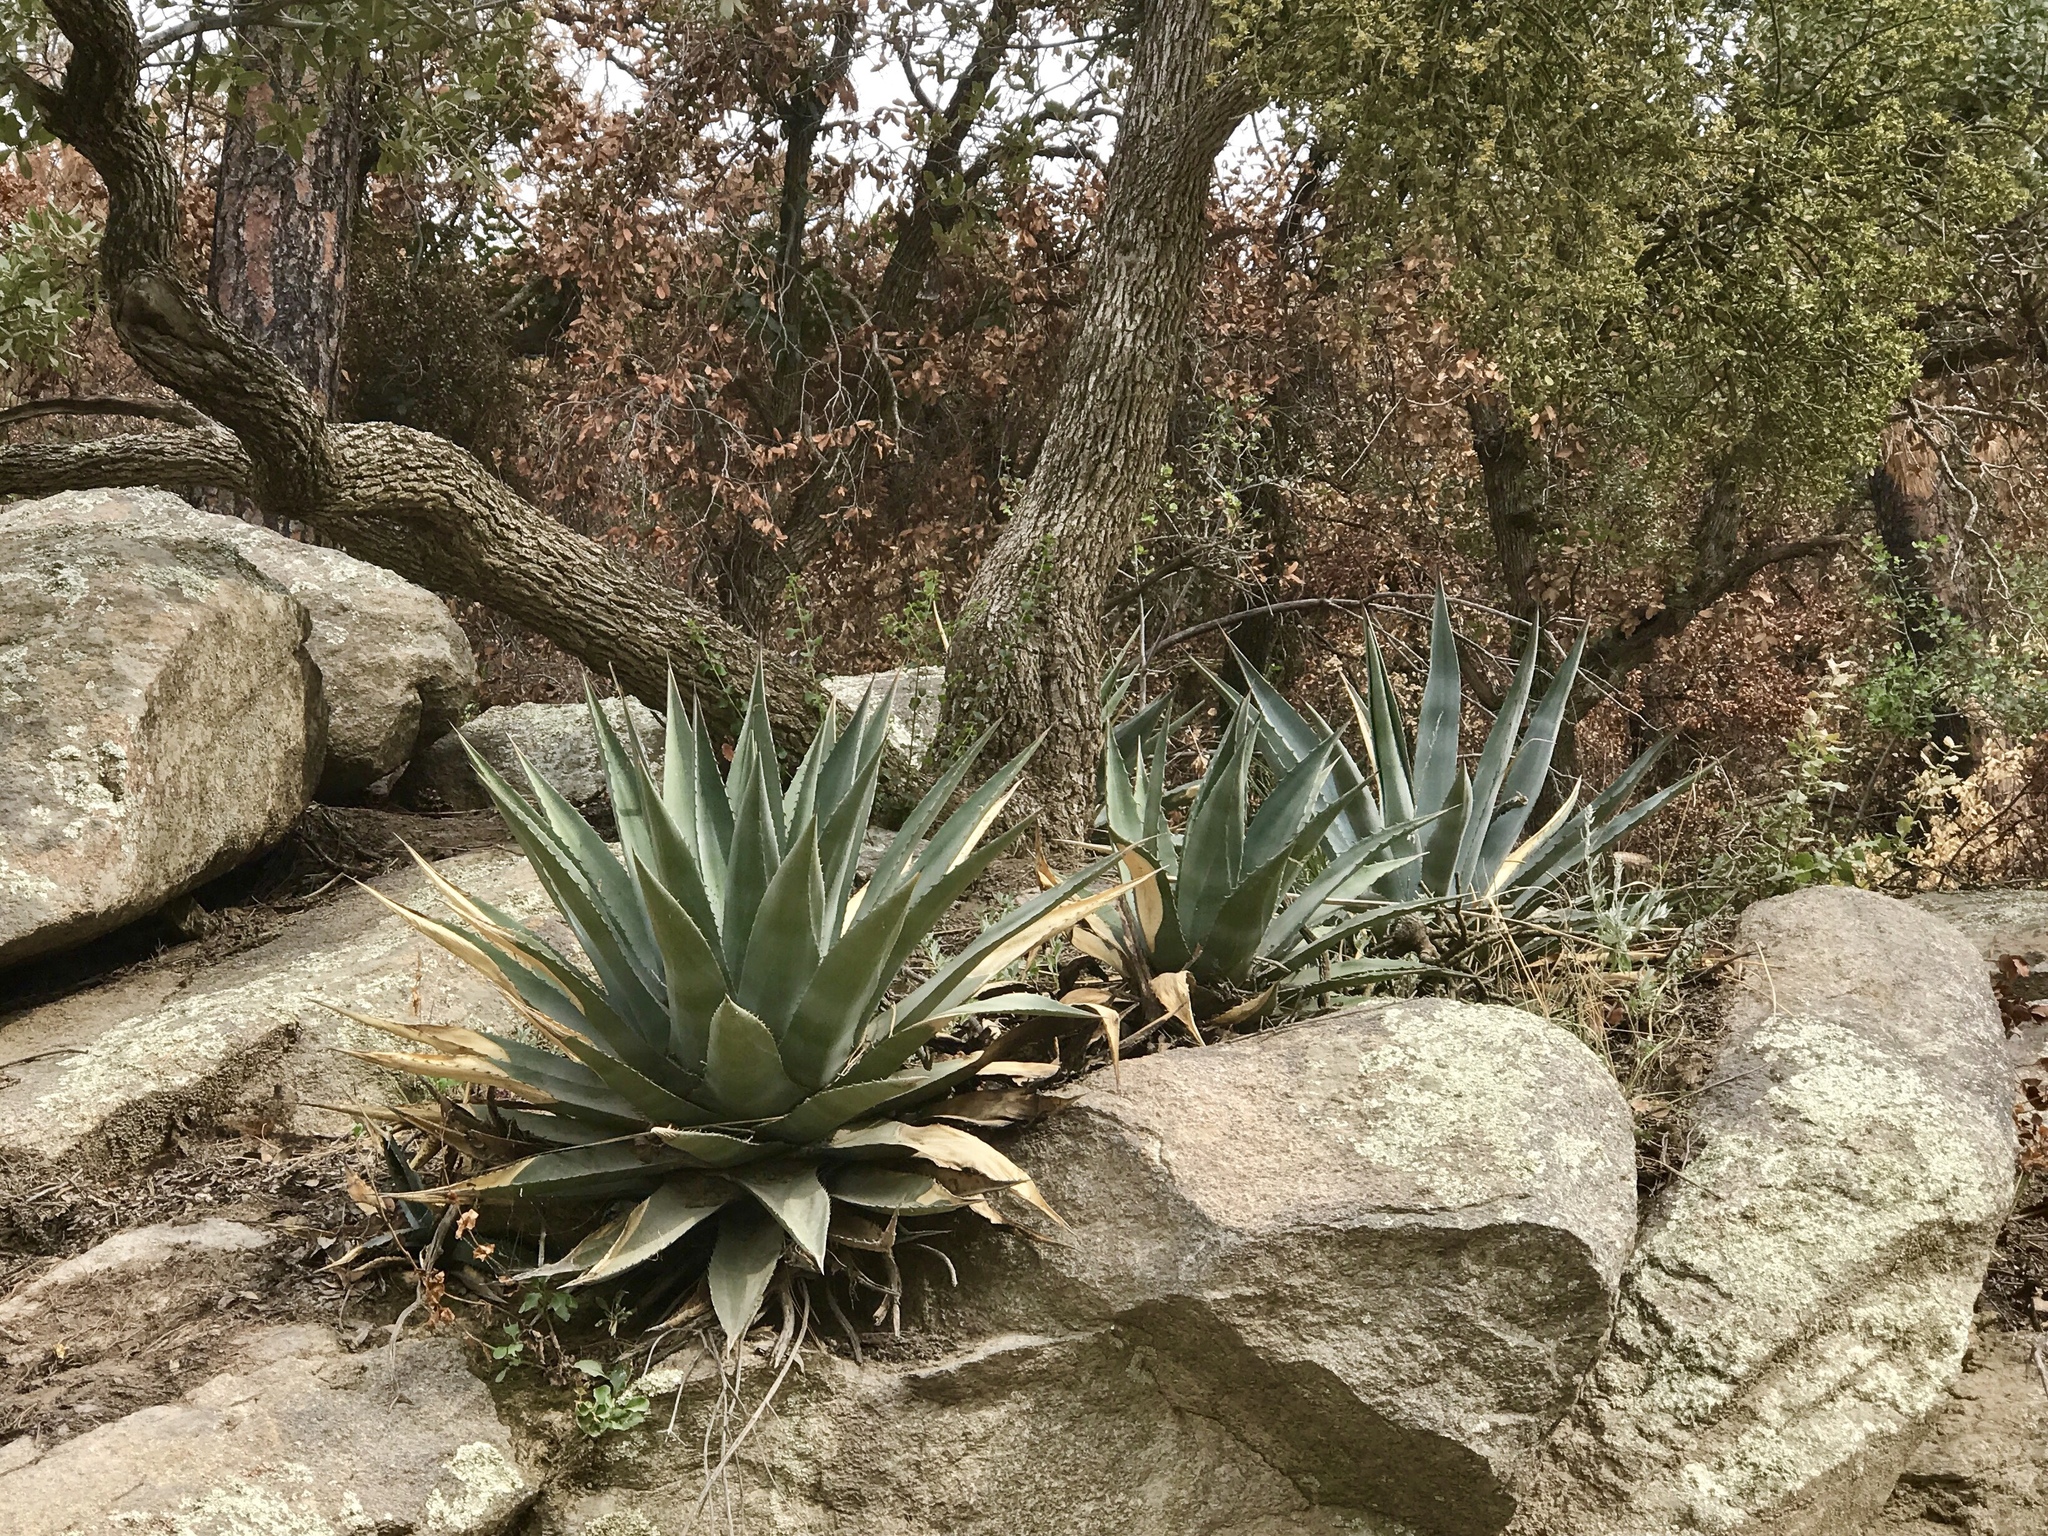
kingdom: Plantae
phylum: Tracheophyta
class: Liliopsida
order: Asparagales
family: Asparagaceae
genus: Agave
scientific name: Agave delamateri
